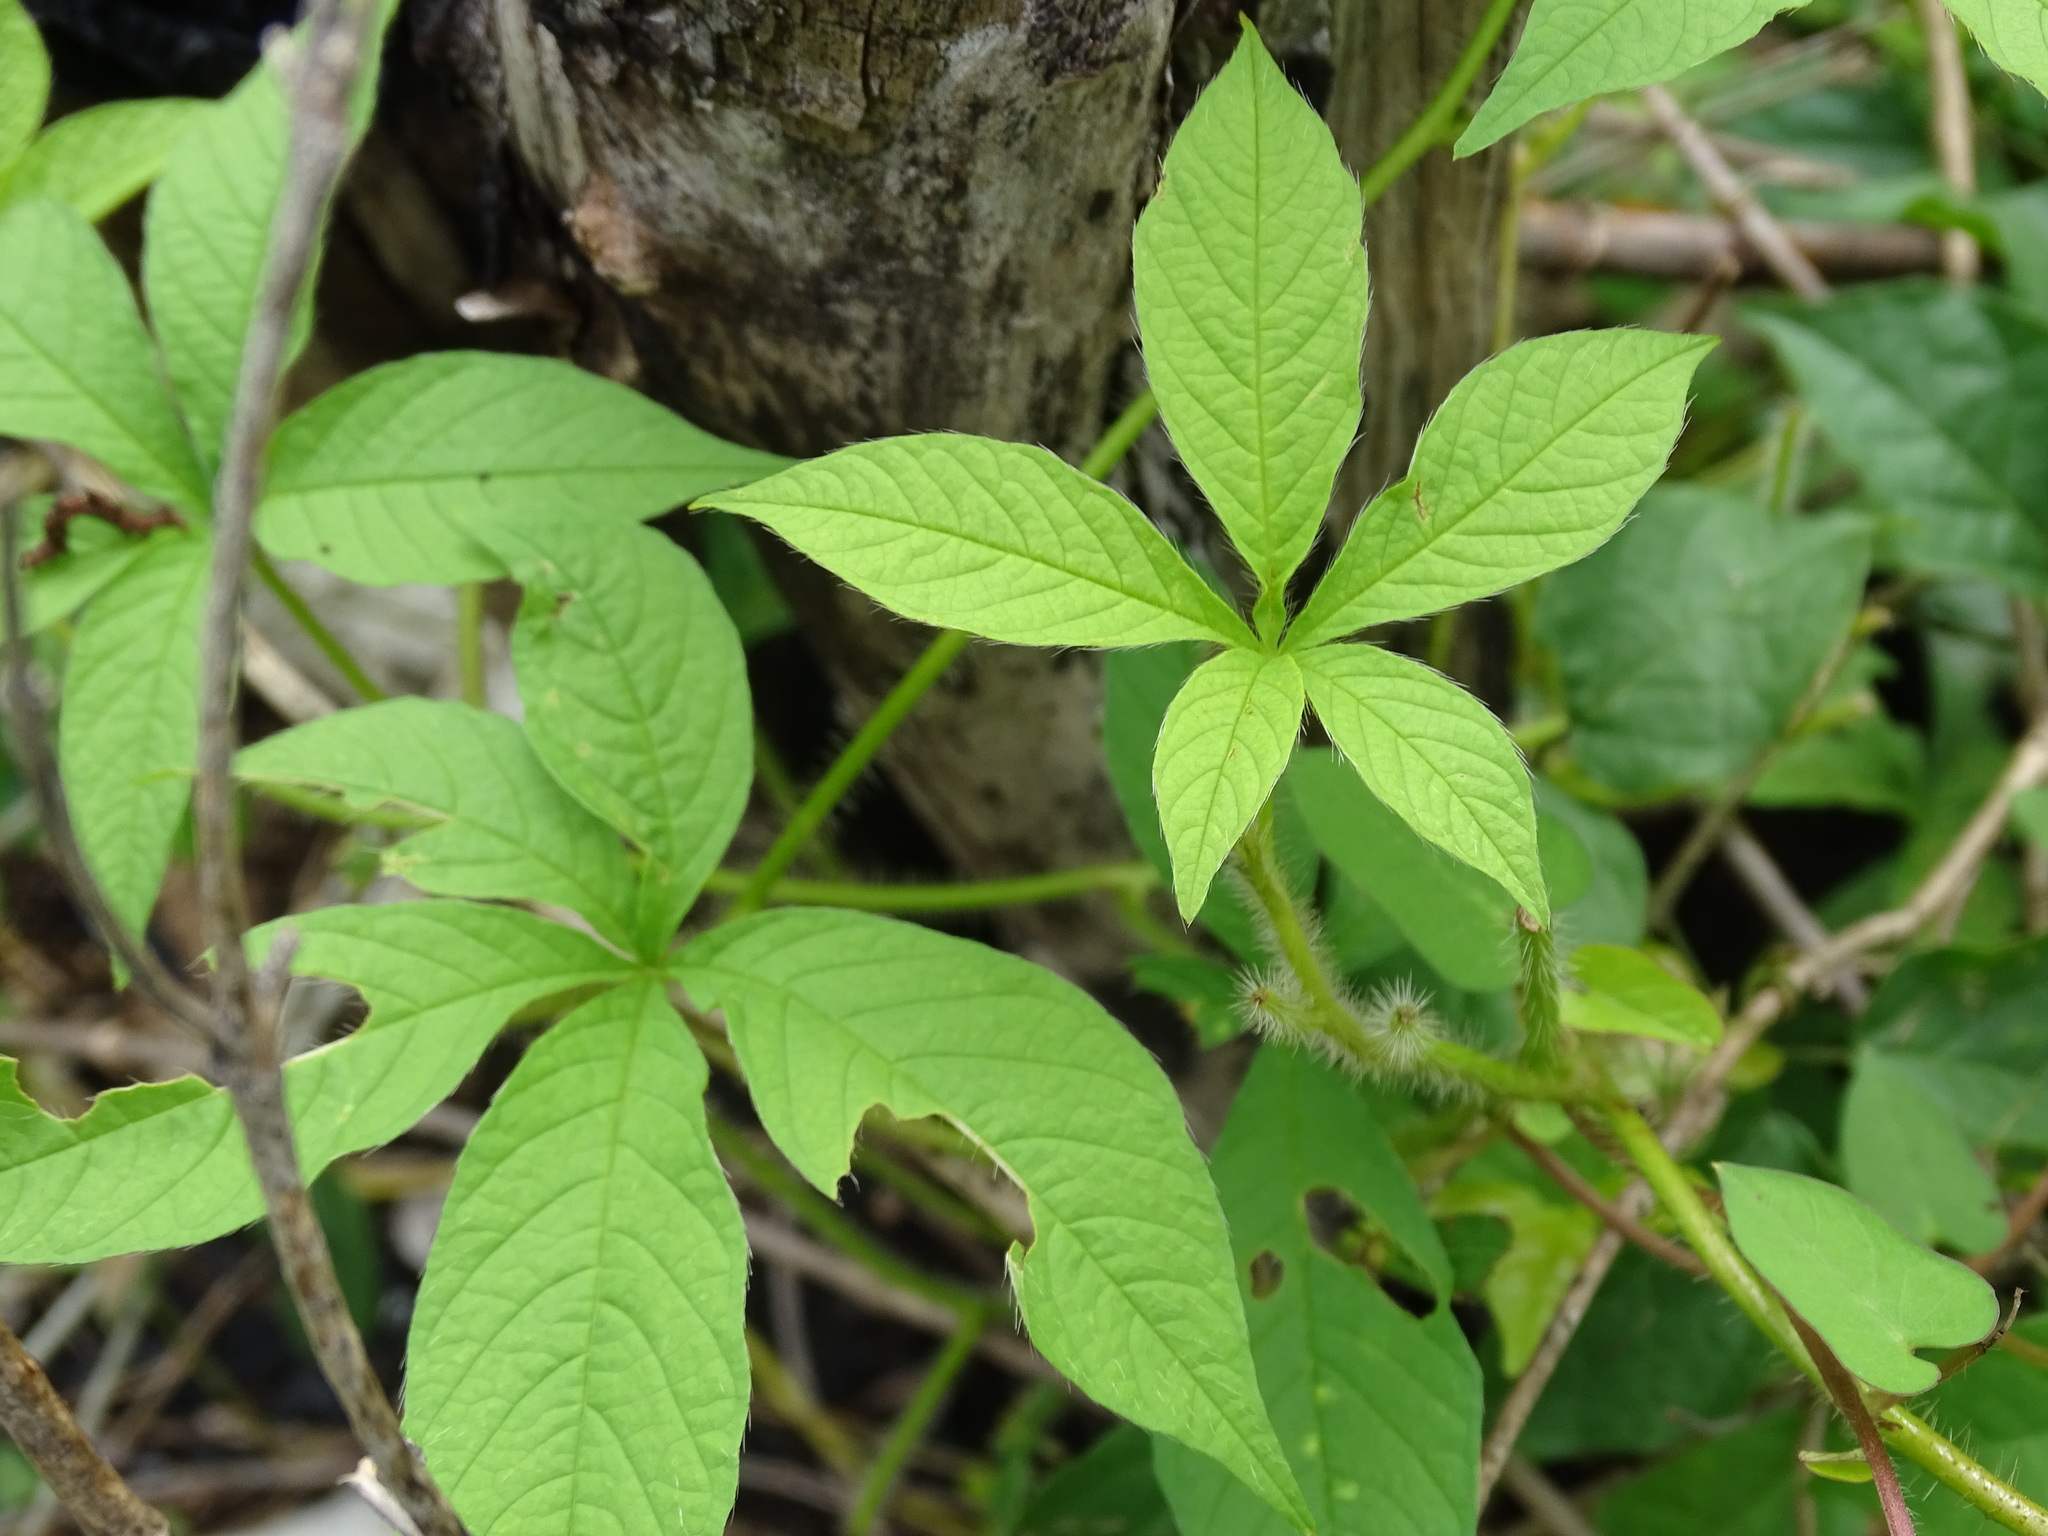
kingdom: Plantae
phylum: Tracheophyta
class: Magnoliopsida
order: Solanales
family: Convolvulaceae
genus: Distimake
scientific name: Distimake aegyptius
